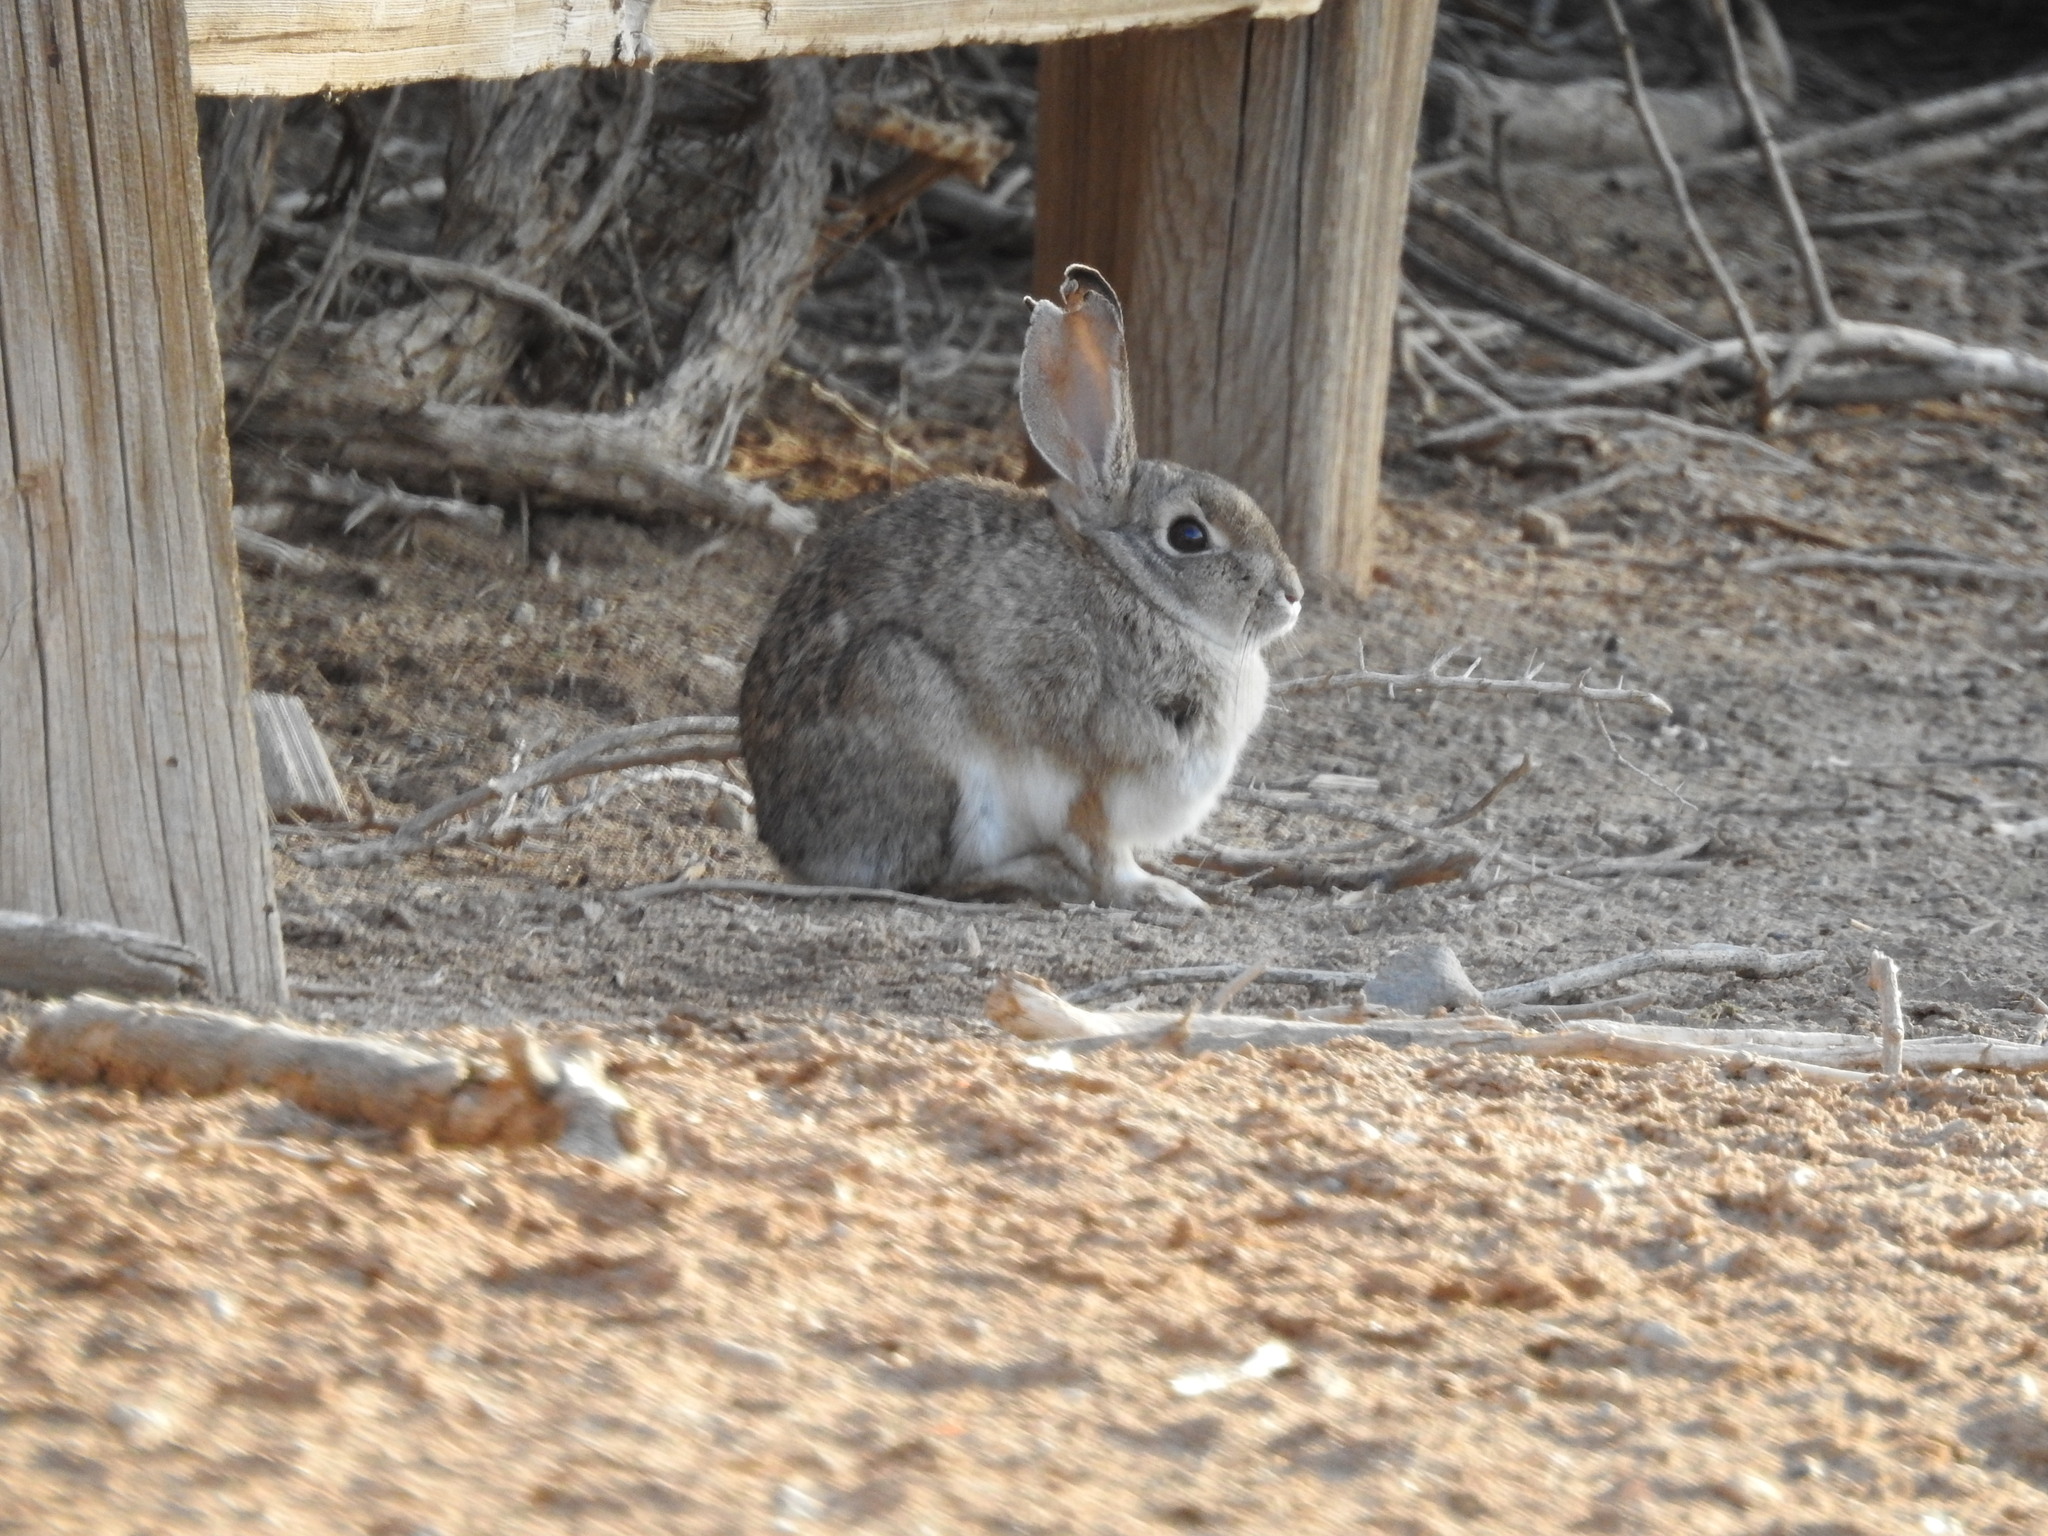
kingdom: Animalia
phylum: Chordata
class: Mammalia
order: Lagomorpha
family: Leporidae
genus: Sylvilagus
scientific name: Sylvilagus audubonii
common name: Desert cottontail
